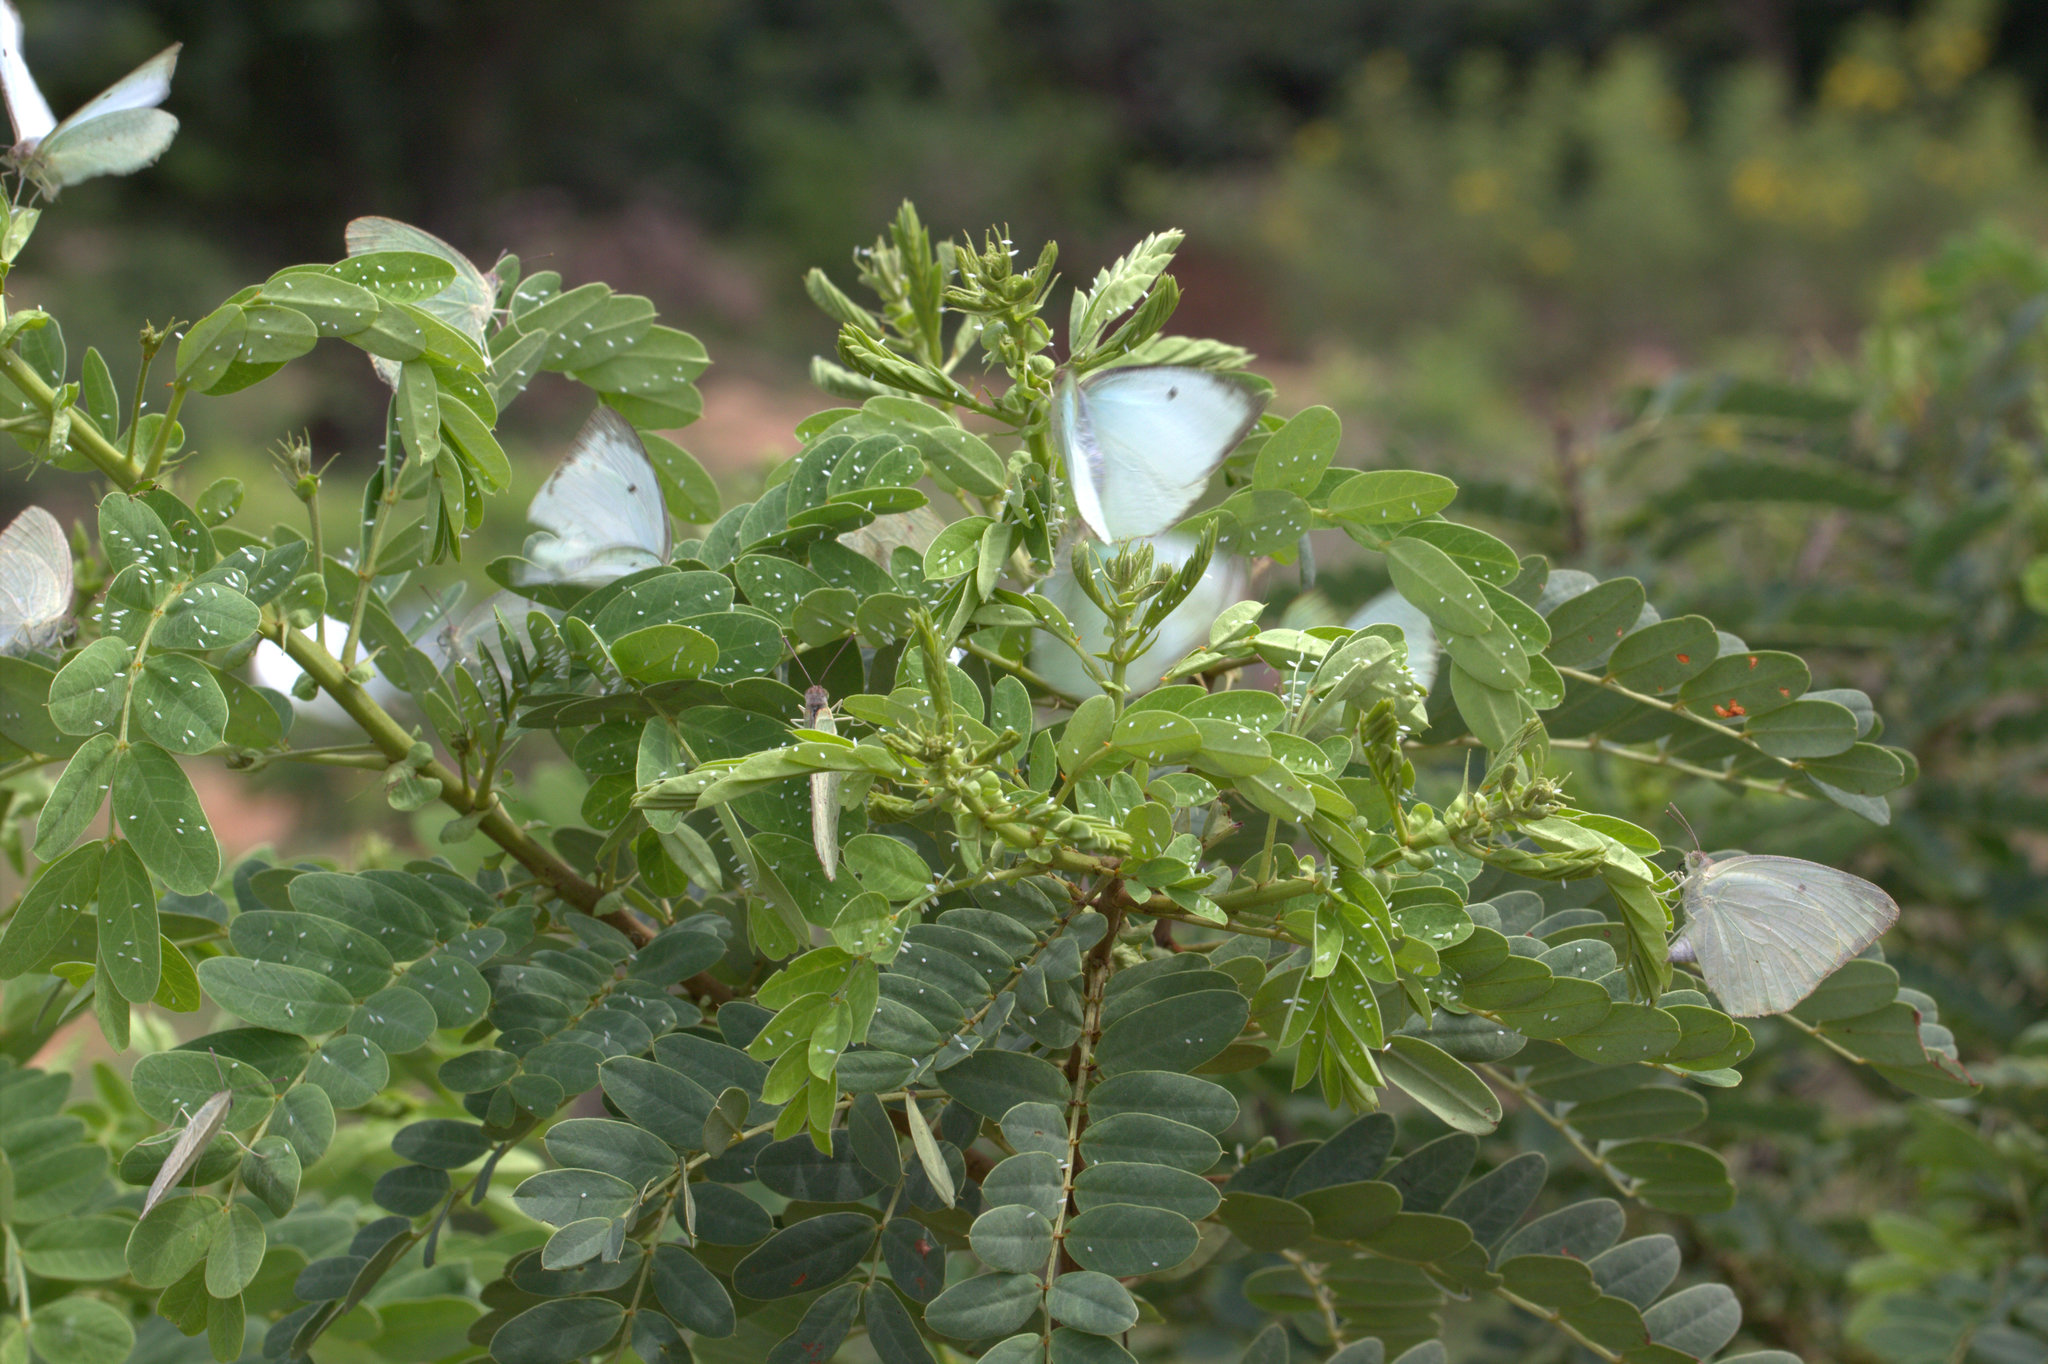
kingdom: Animalia
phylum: Arthropoda
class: Insecta
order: Lepidoptera
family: Pieridae
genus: Catopsilia
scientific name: Catopsilia pyranthe
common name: Mottled emigrant
